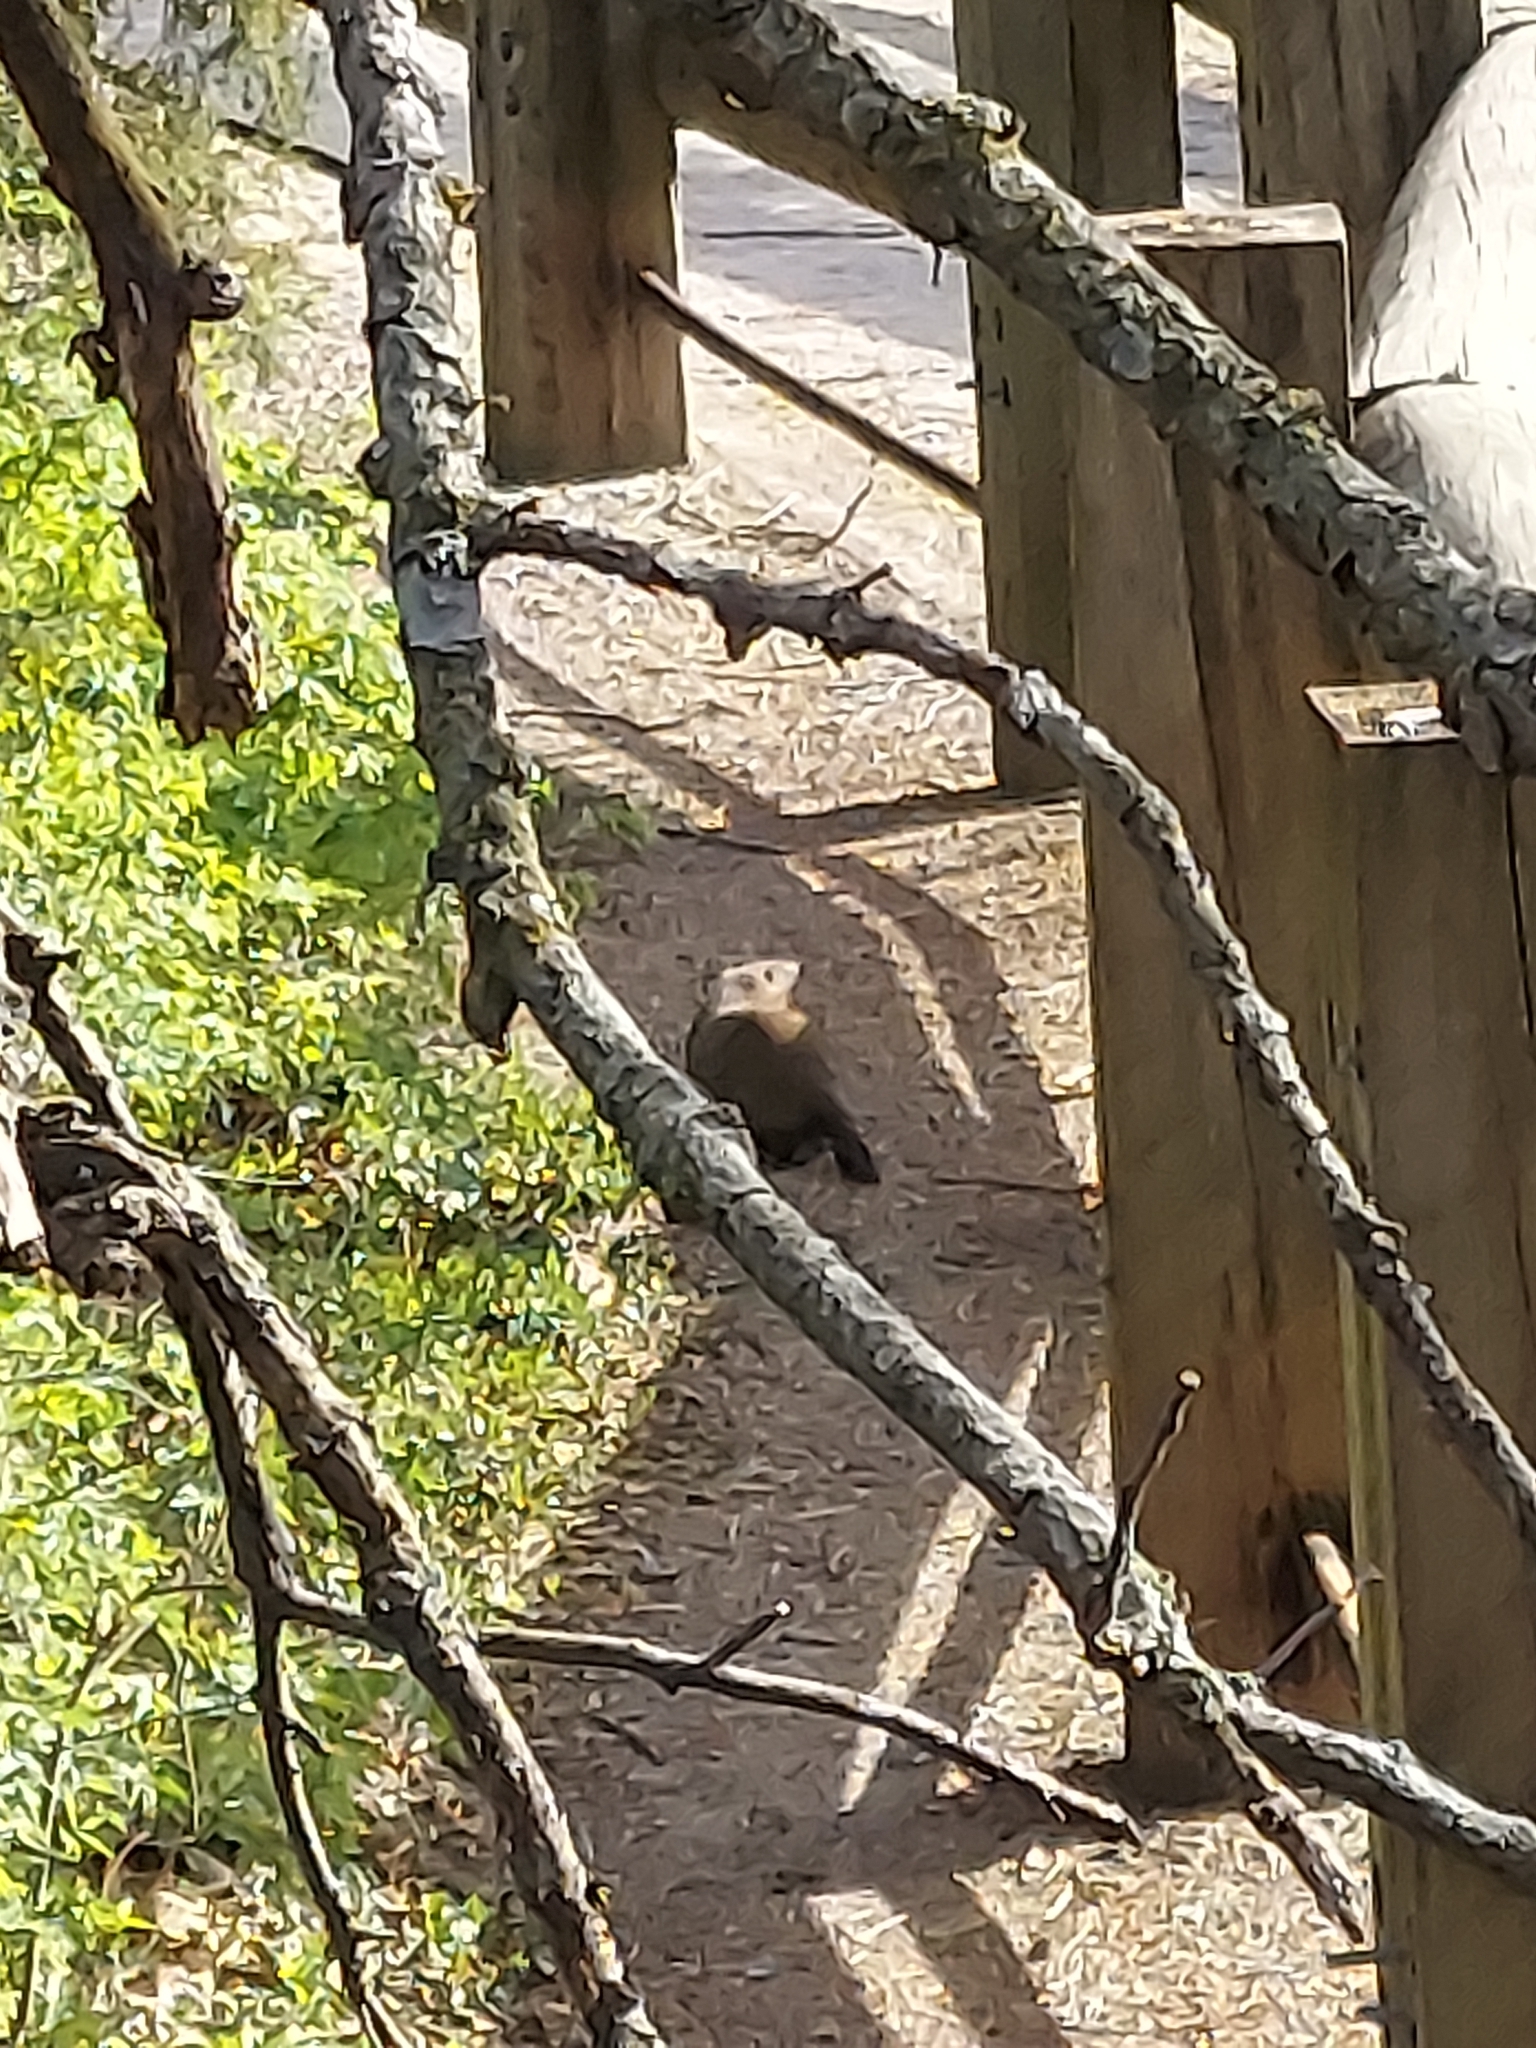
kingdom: Animalia
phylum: Chordata
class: Mammalia
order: Rodentia
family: Sciuridae
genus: Marmota
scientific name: Marmota monax
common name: Groundhog
